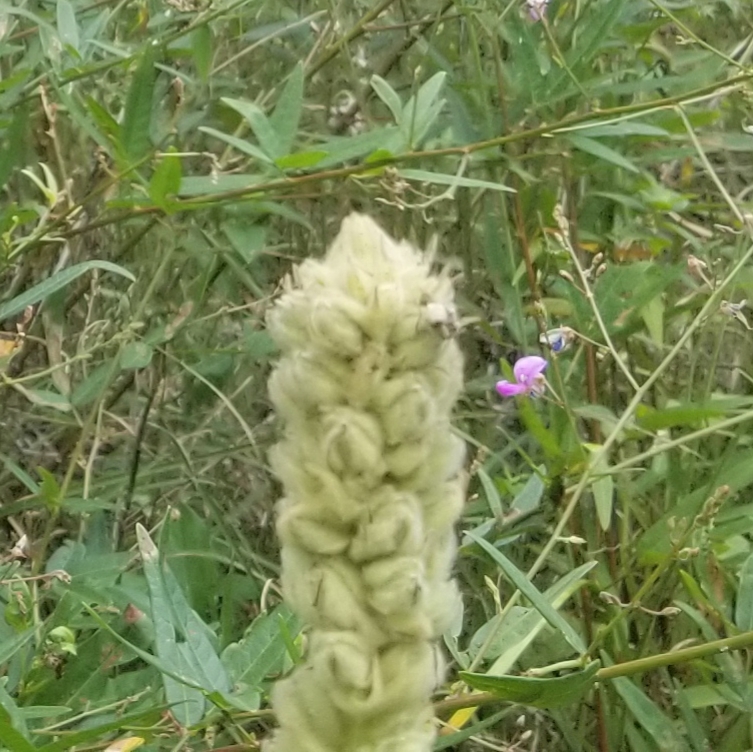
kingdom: Plantae
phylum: Tracheophyta
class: Magnoliopsida
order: Lamiales
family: Scrophulariaceae
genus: Verbascum
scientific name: Verbascum thapsus
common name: Common mullein
